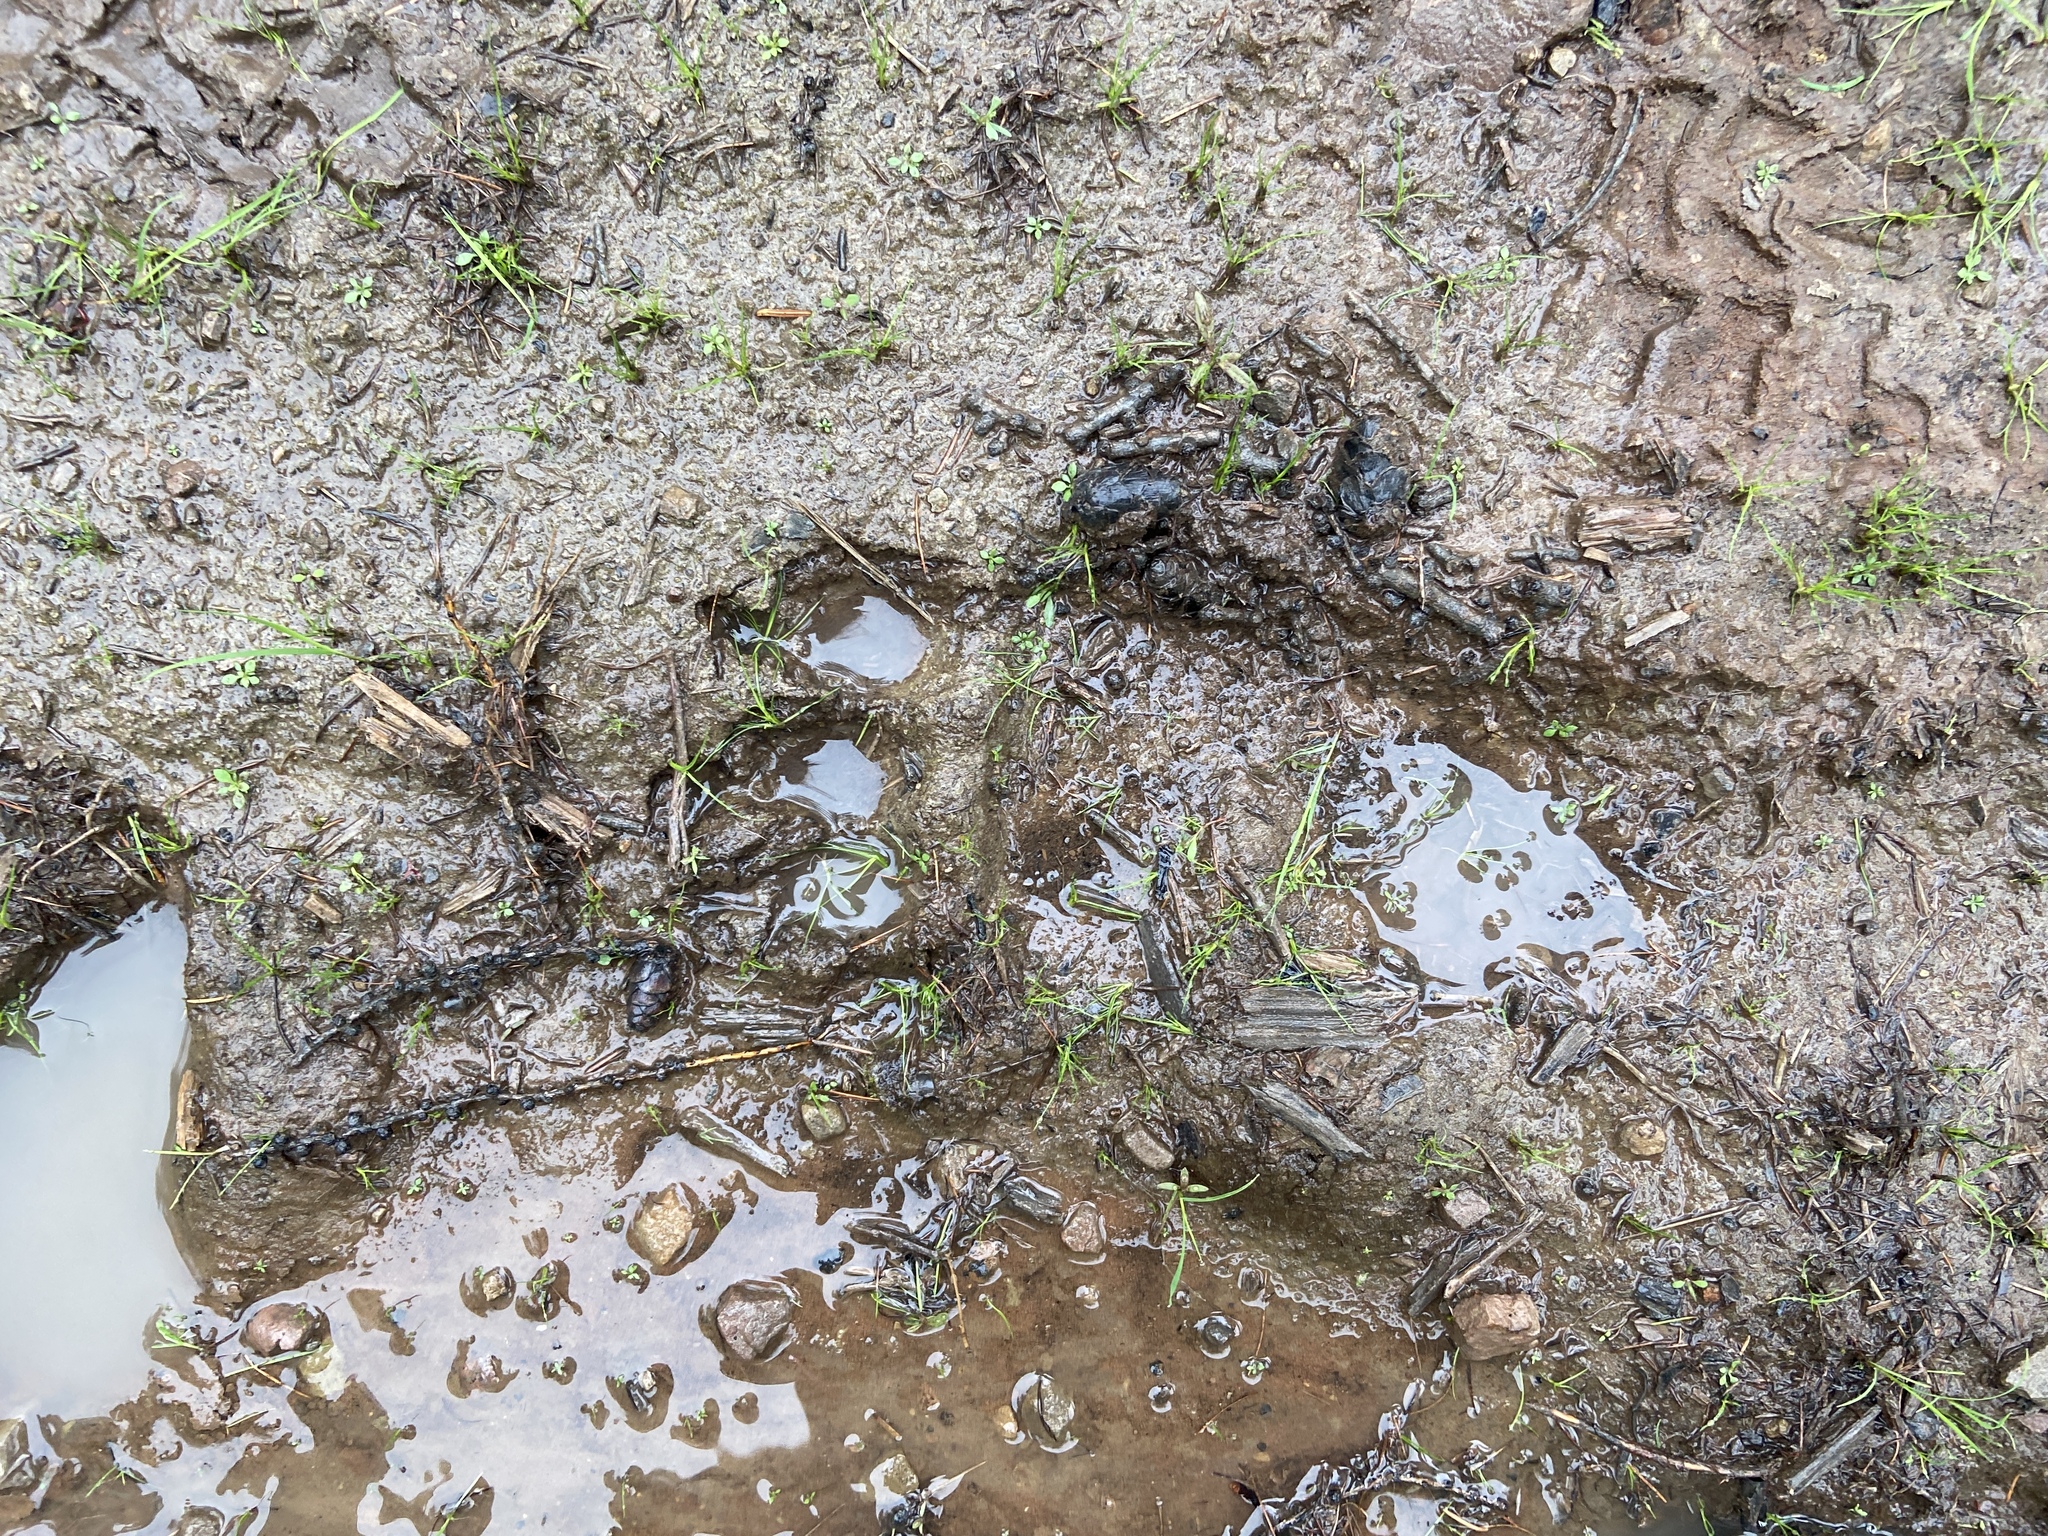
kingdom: Animalia
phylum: Chordata
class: Mammalia
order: Carnivora
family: Ursidae
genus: Ursus
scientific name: Ursus arctos
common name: Brown bear
